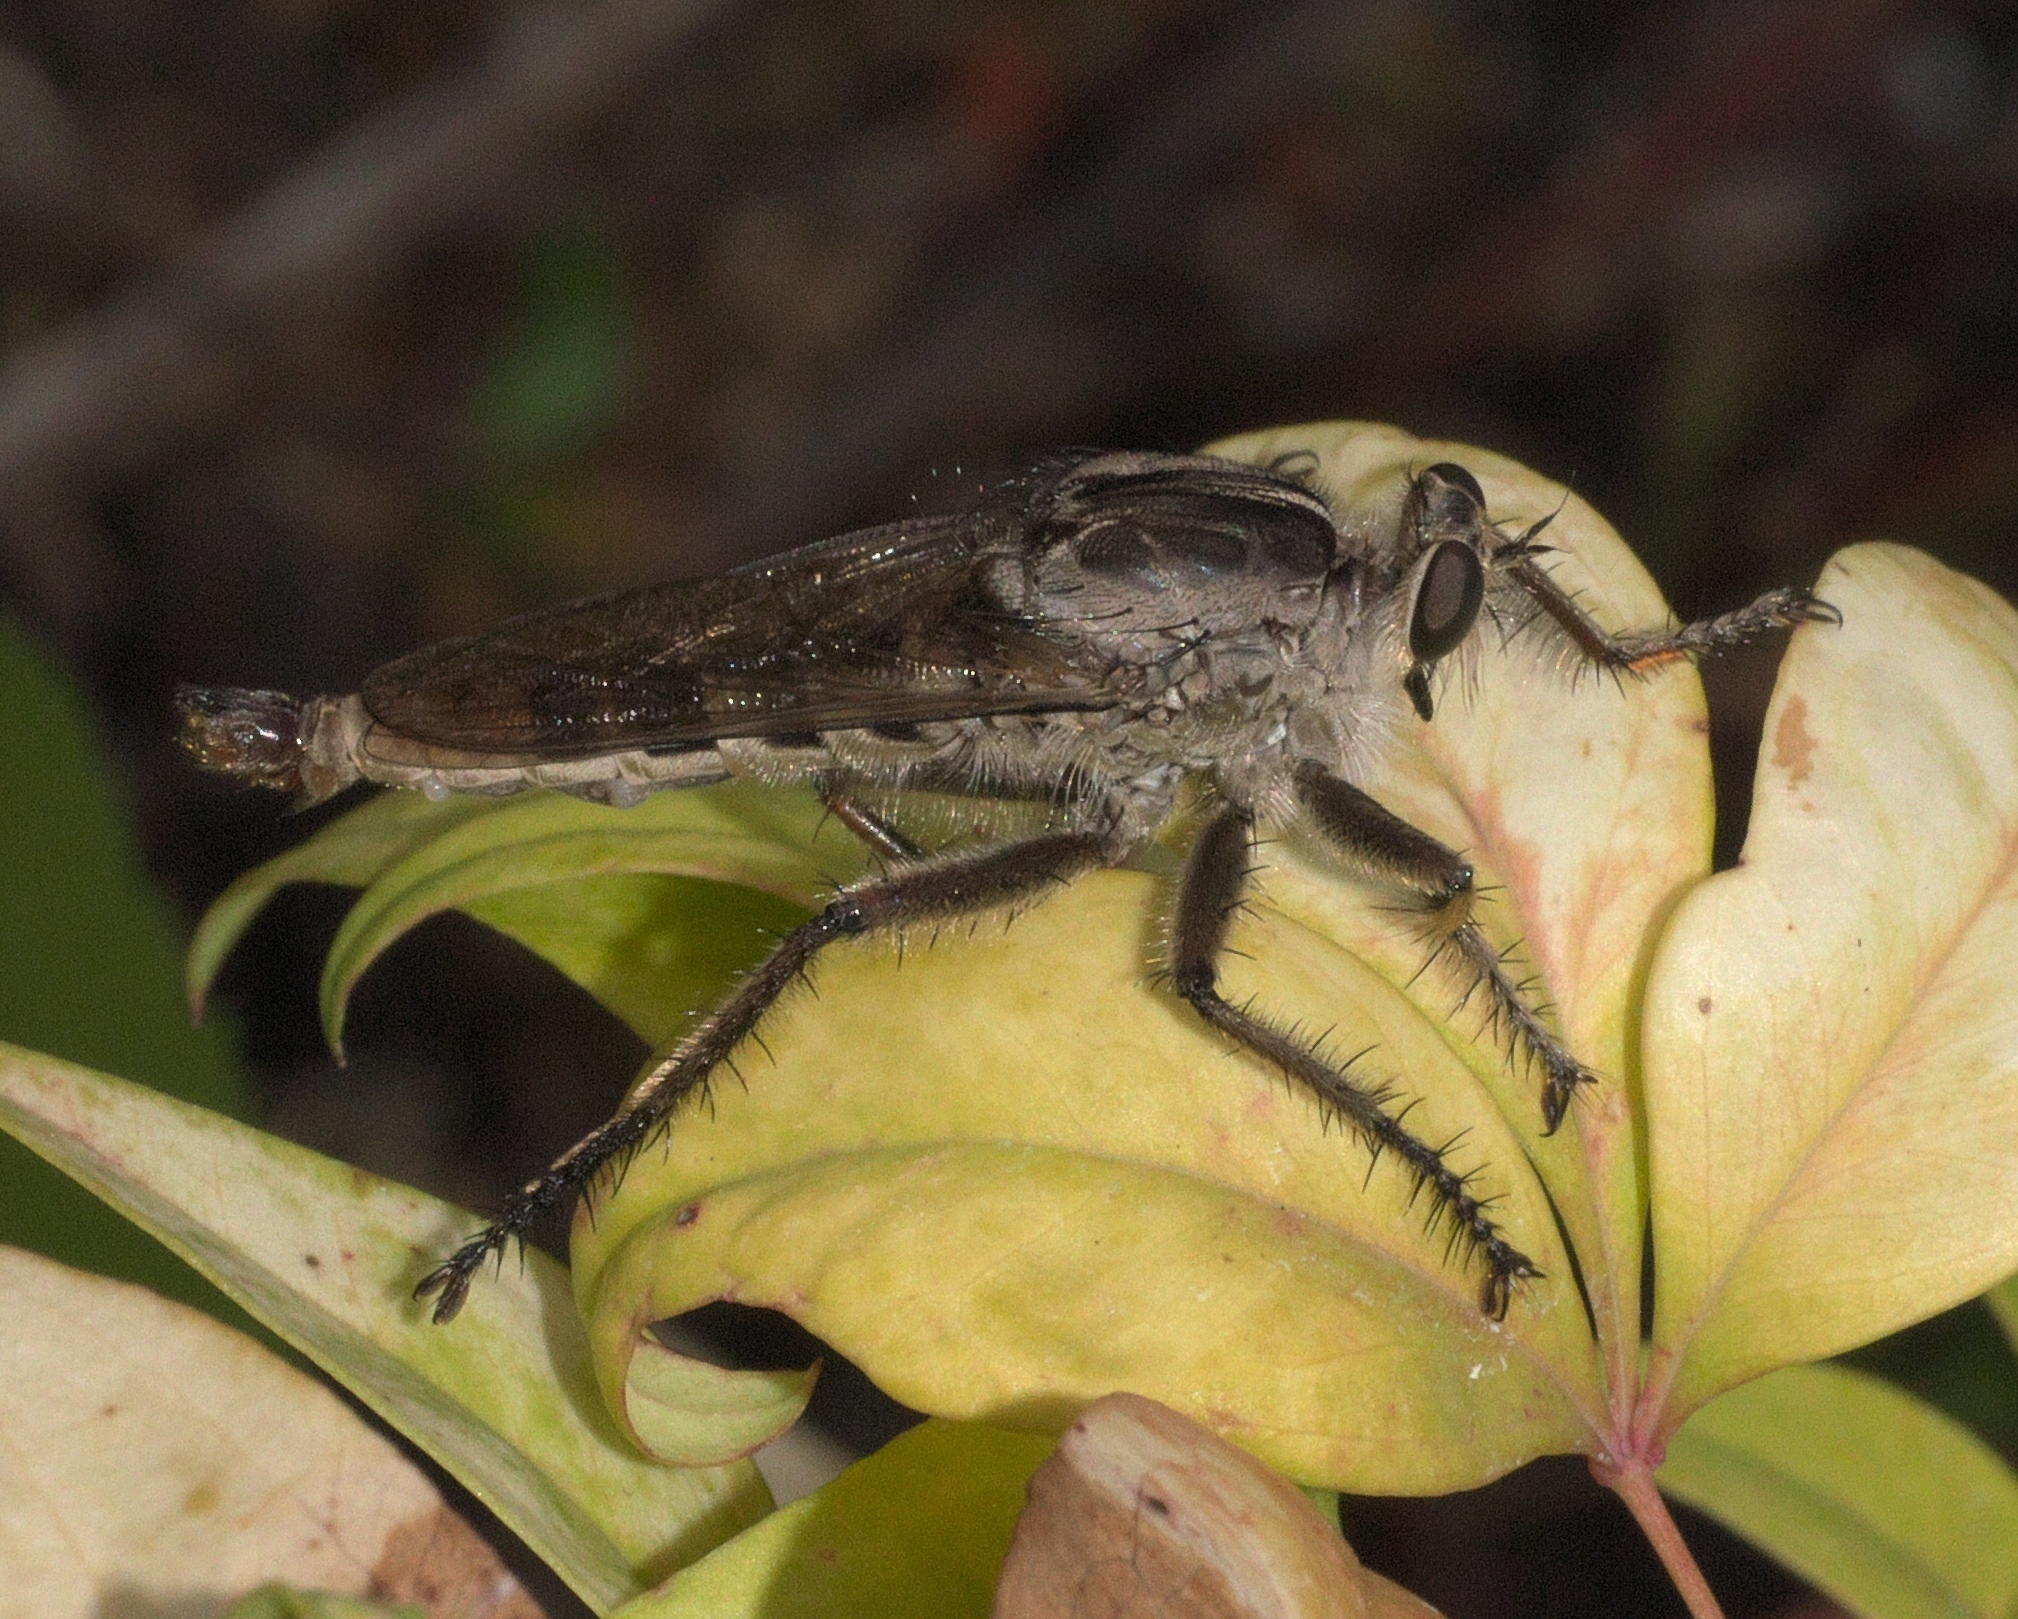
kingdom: Animalia
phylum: Arthropoda
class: Insecta
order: Diptera
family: Asilidae
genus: Triorla
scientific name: Triorla interrupta
